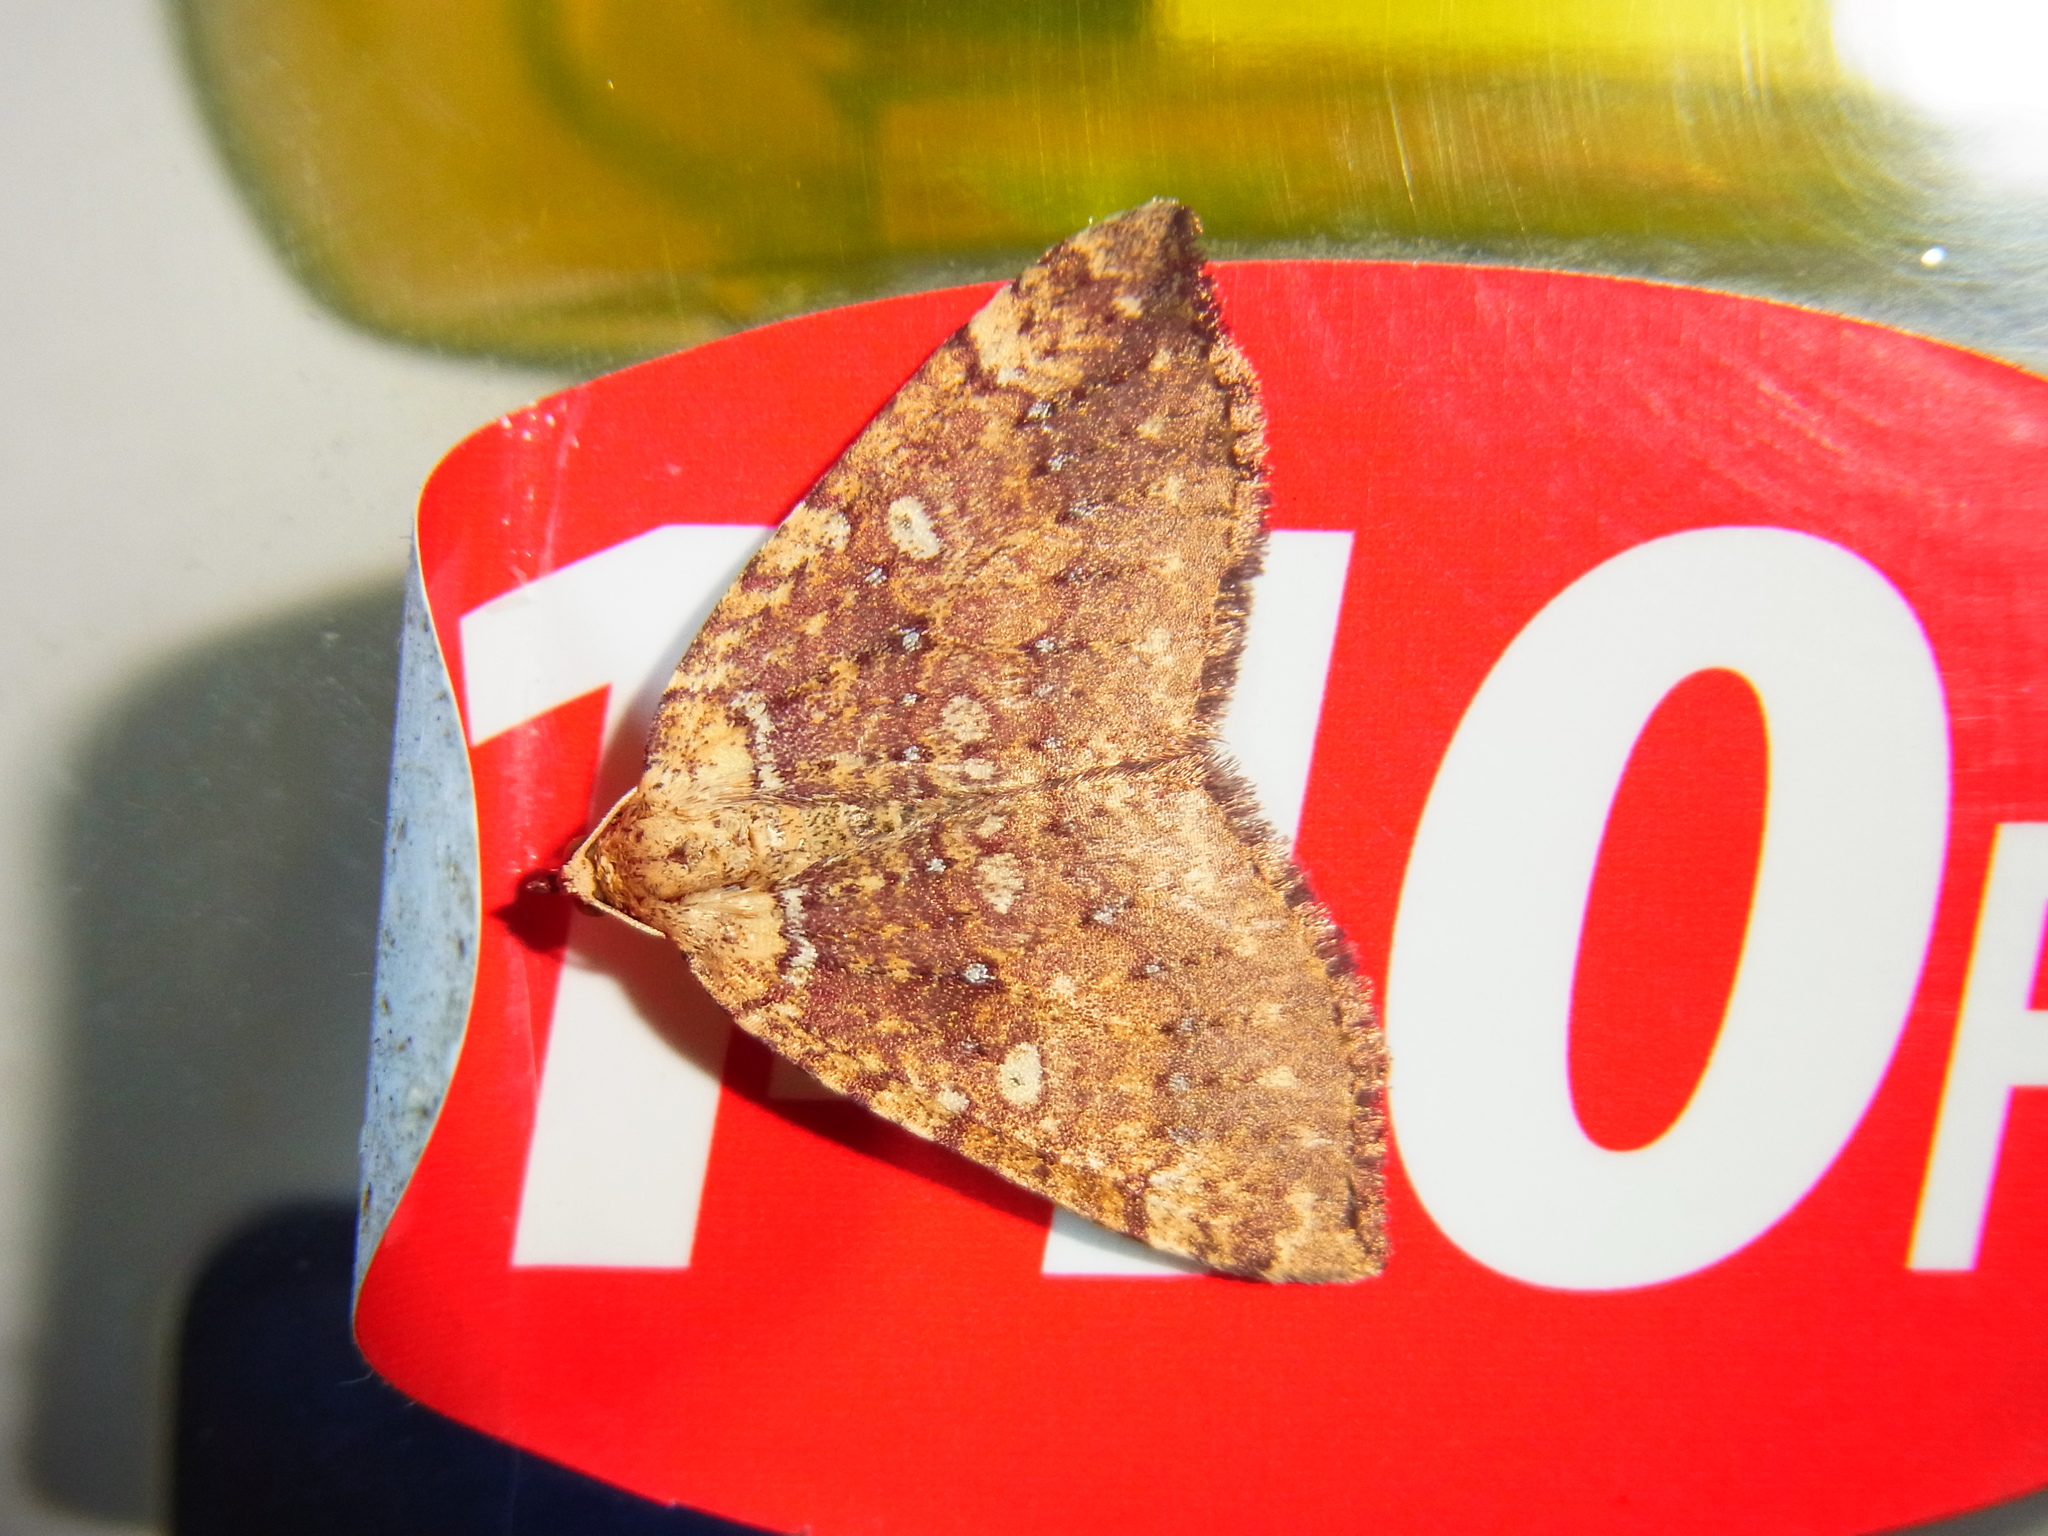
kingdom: Animalia
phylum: Arthropoda
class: Insecta
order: Lepidoptera
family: Geometridae
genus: Idiotephria
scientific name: Idiotephria amelia
